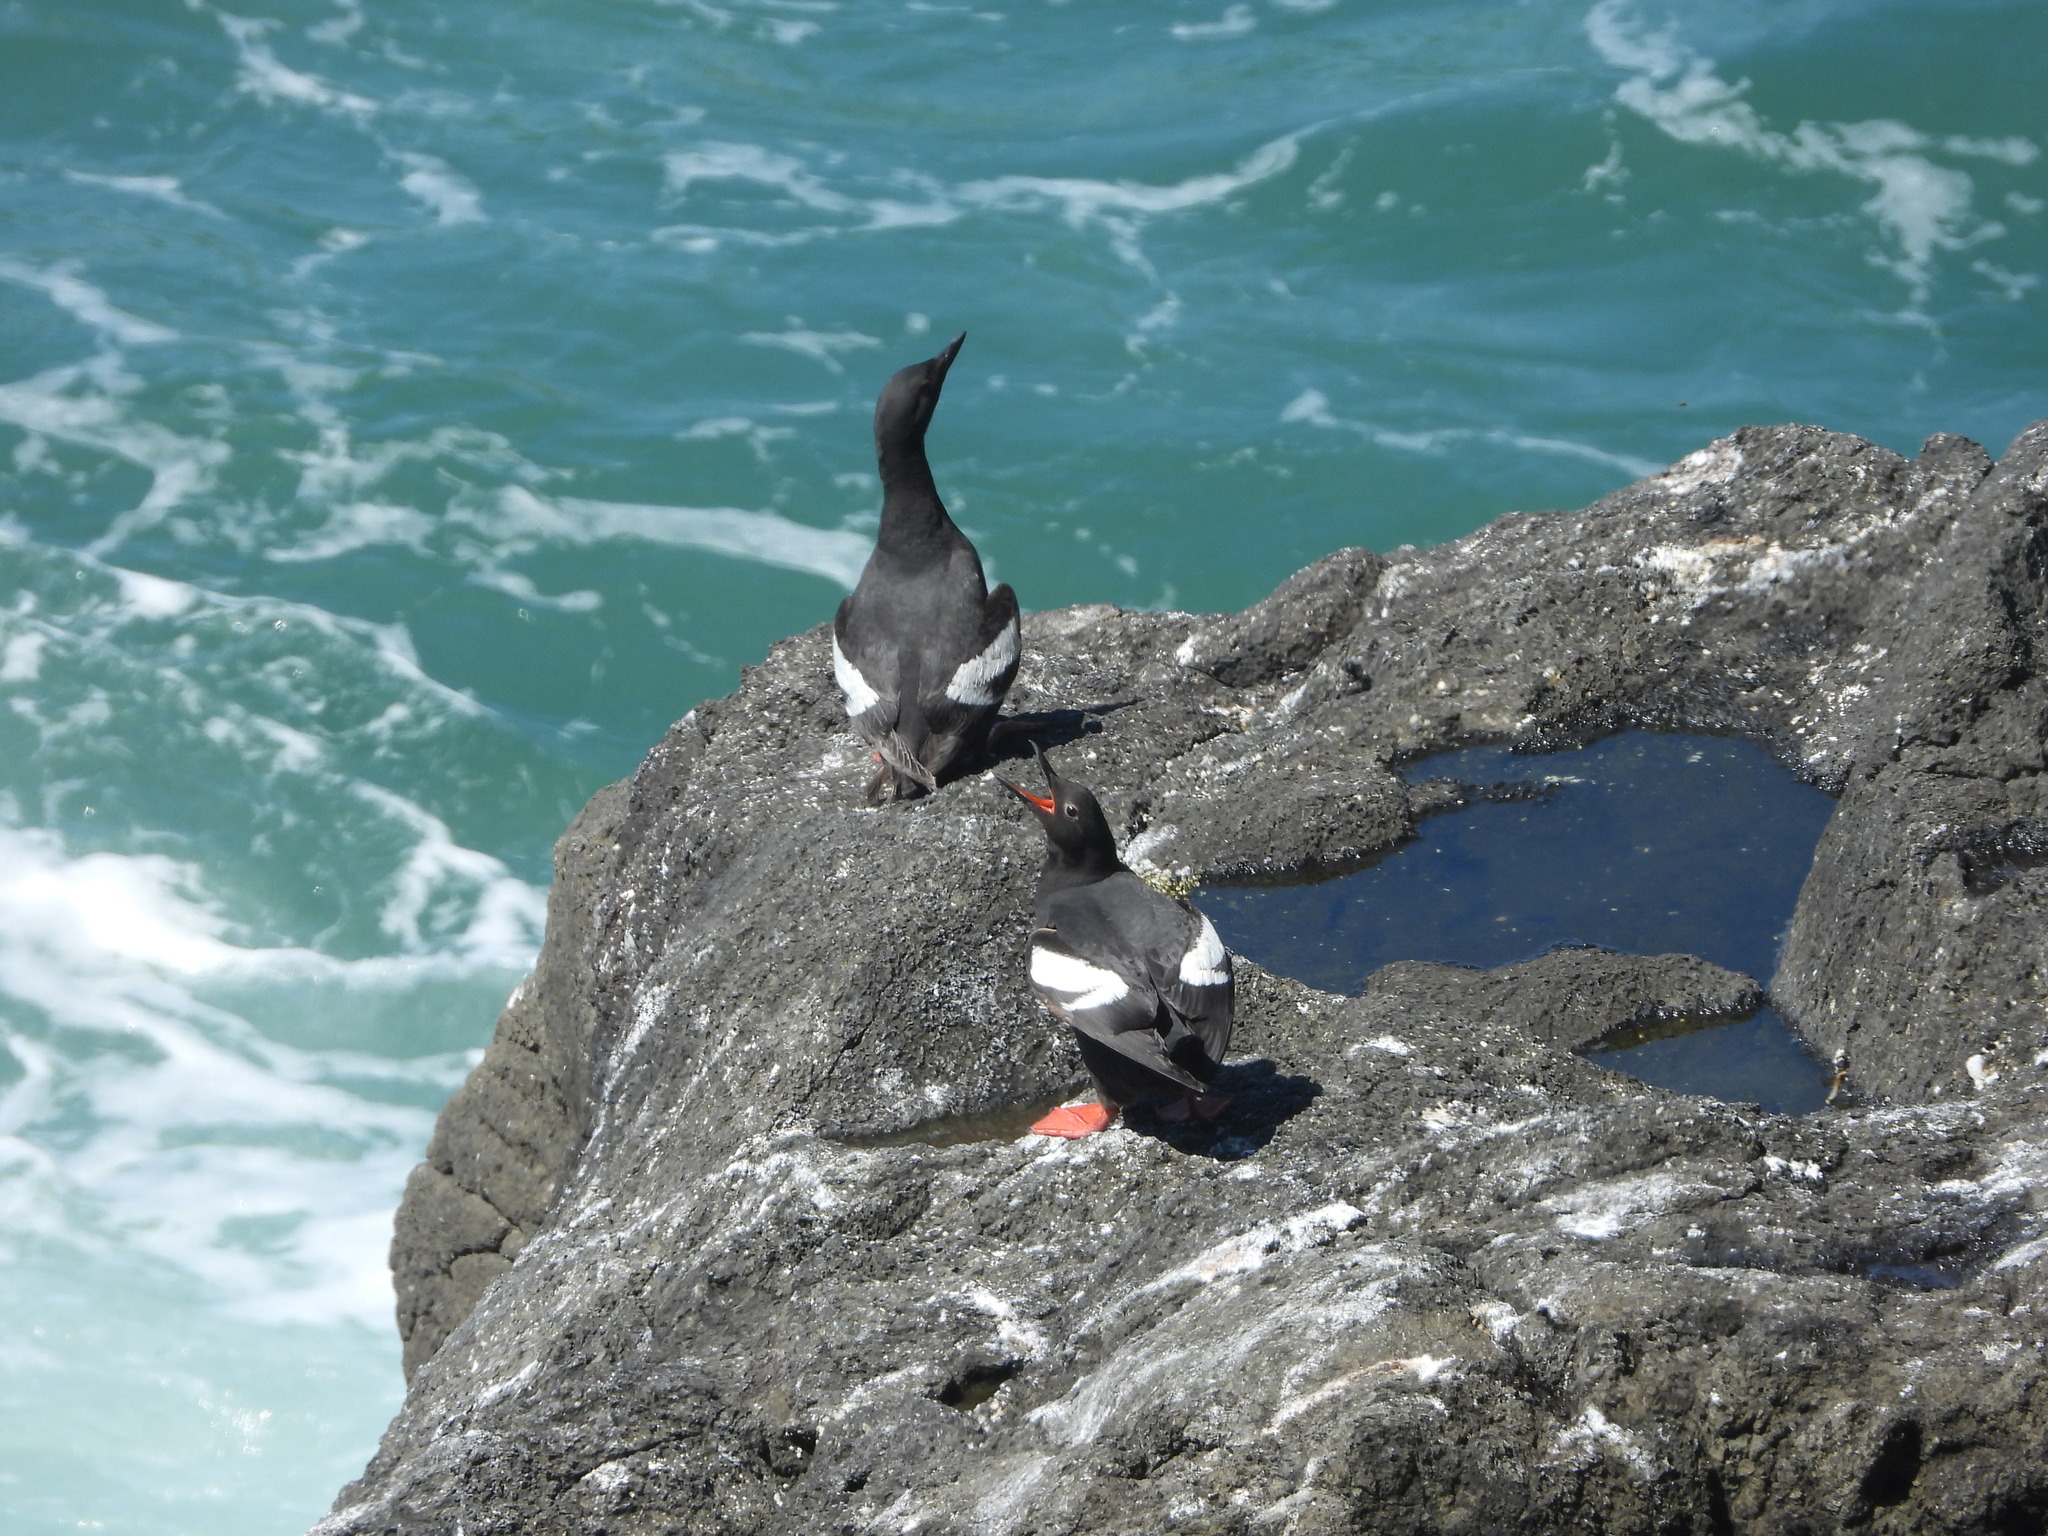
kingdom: Animalia
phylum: Chordata
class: Aves
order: Charadriiformes
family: Alcidae
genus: Cepphus
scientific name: Cepphus columba
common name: Pigeon guillemot
